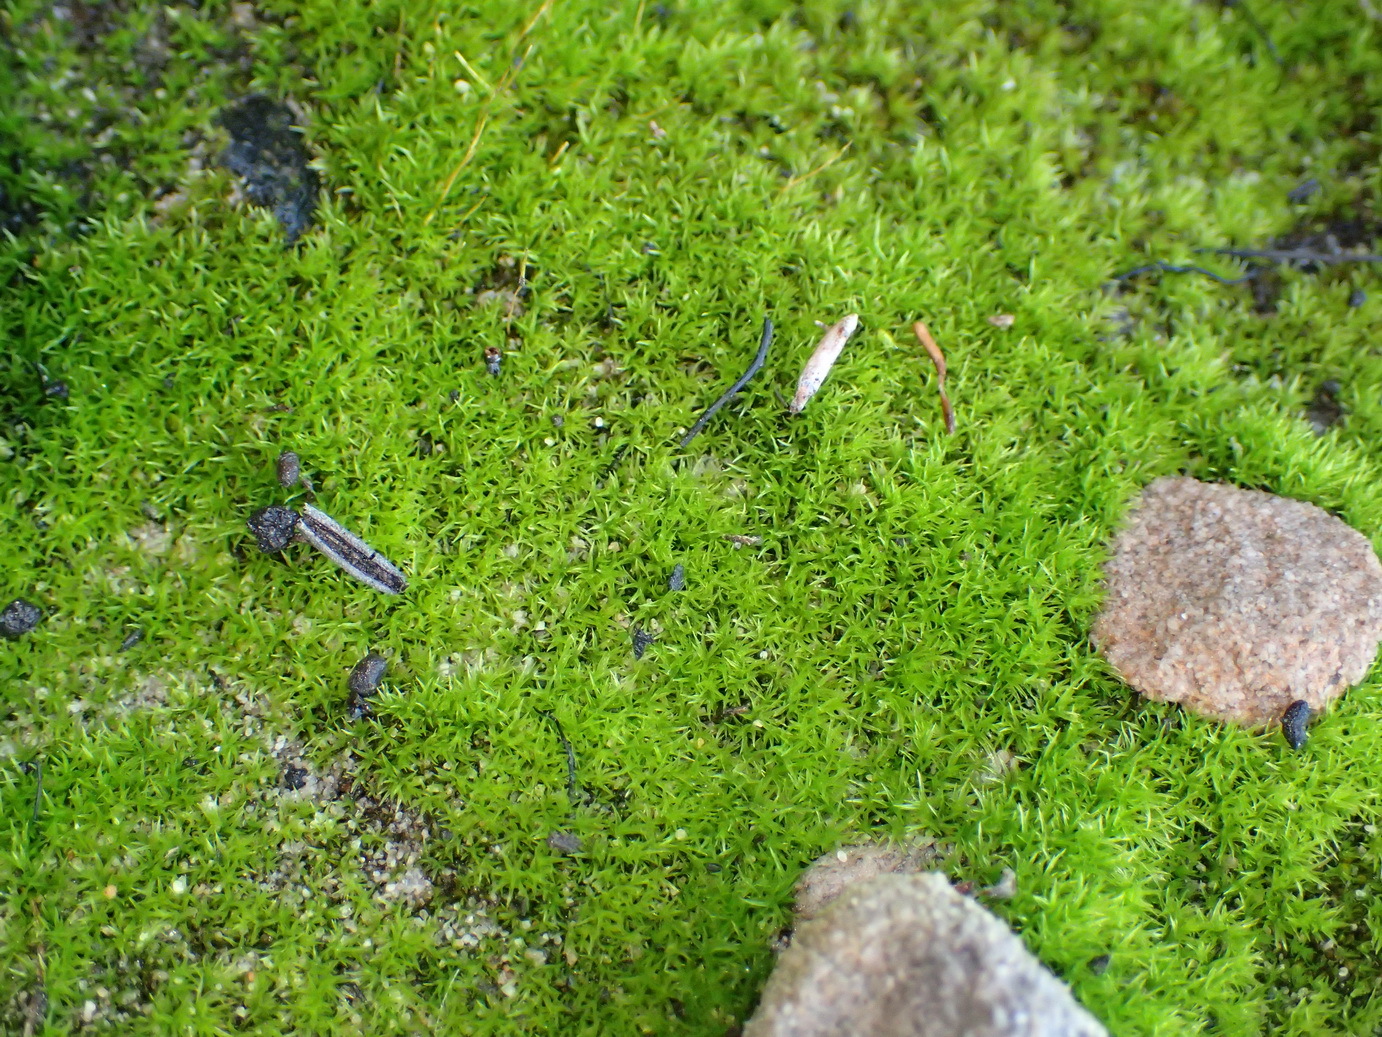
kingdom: Plantae
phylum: Bryophyta
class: Bryopsida
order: Dicranales
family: Ditrichaceae
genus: Ceratodon
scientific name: Ceratodon purpureus
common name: Redshank
